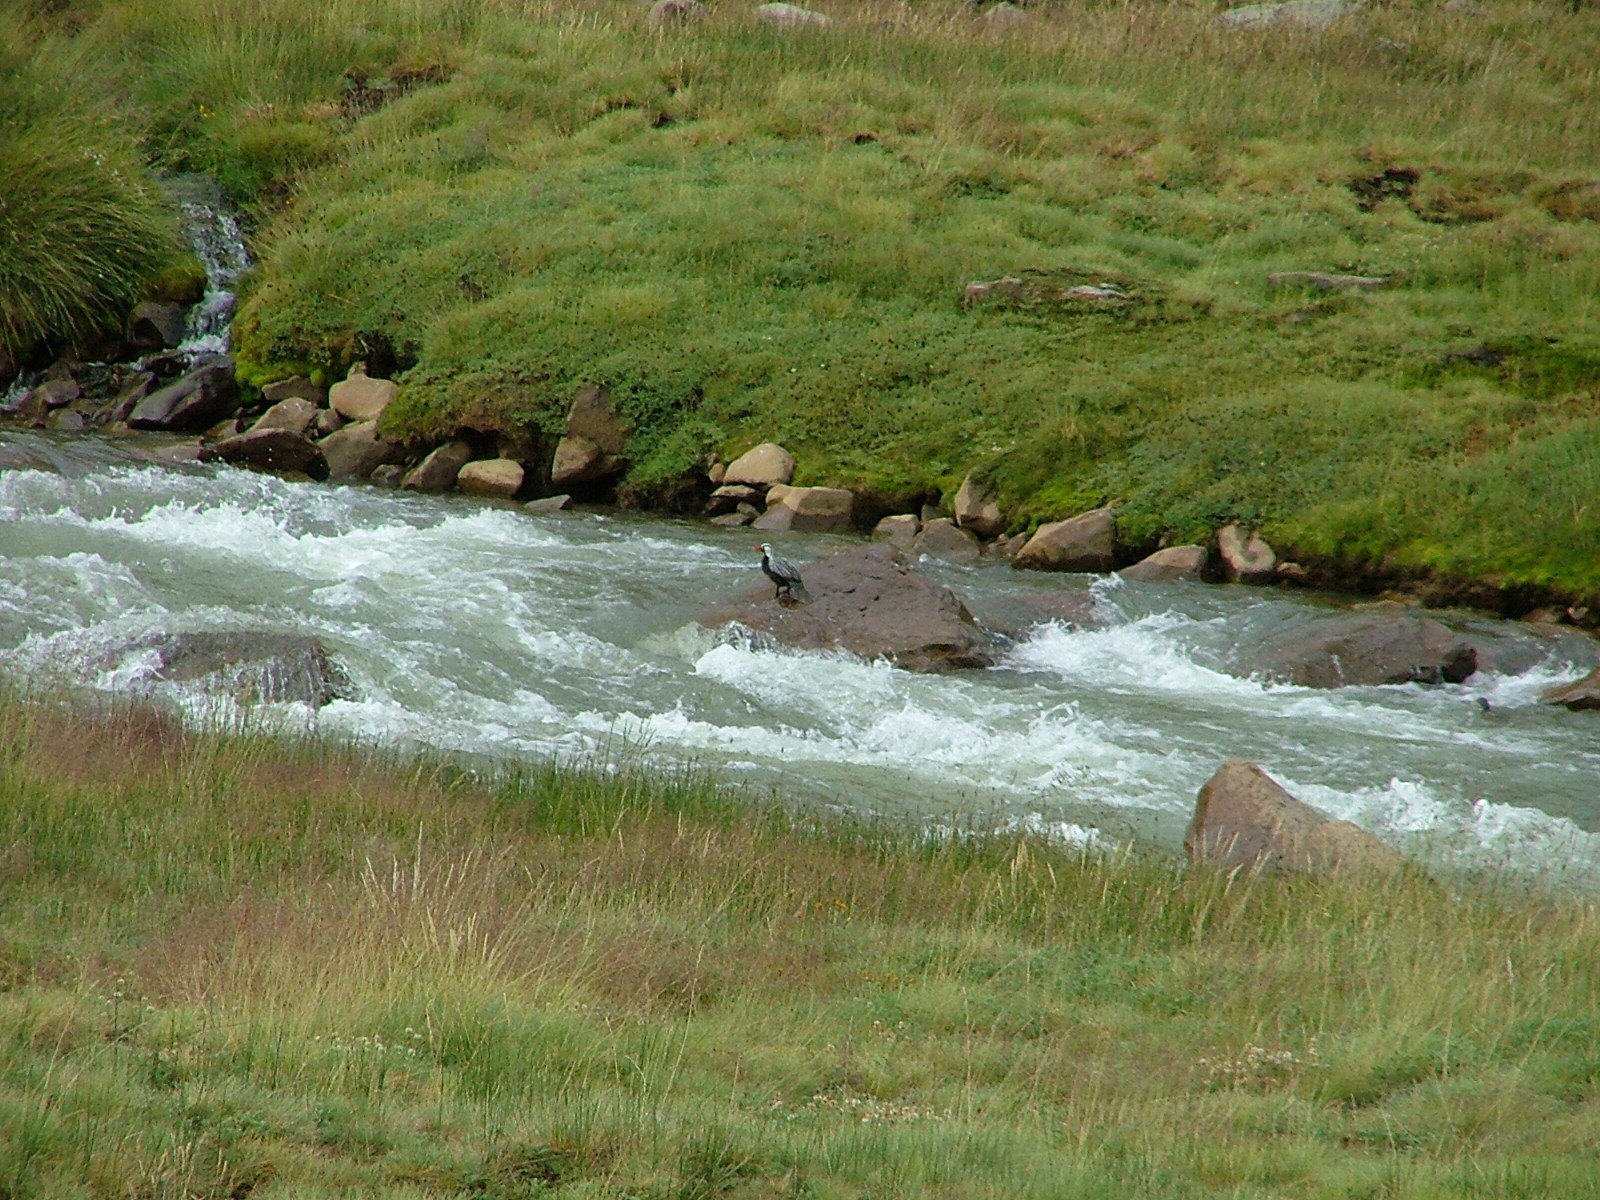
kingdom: Animalia
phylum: Chordata
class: Aves
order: Anseriformes
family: Anatidae
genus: Merganetta
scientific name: Merganetta armata
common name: Torrent duck
